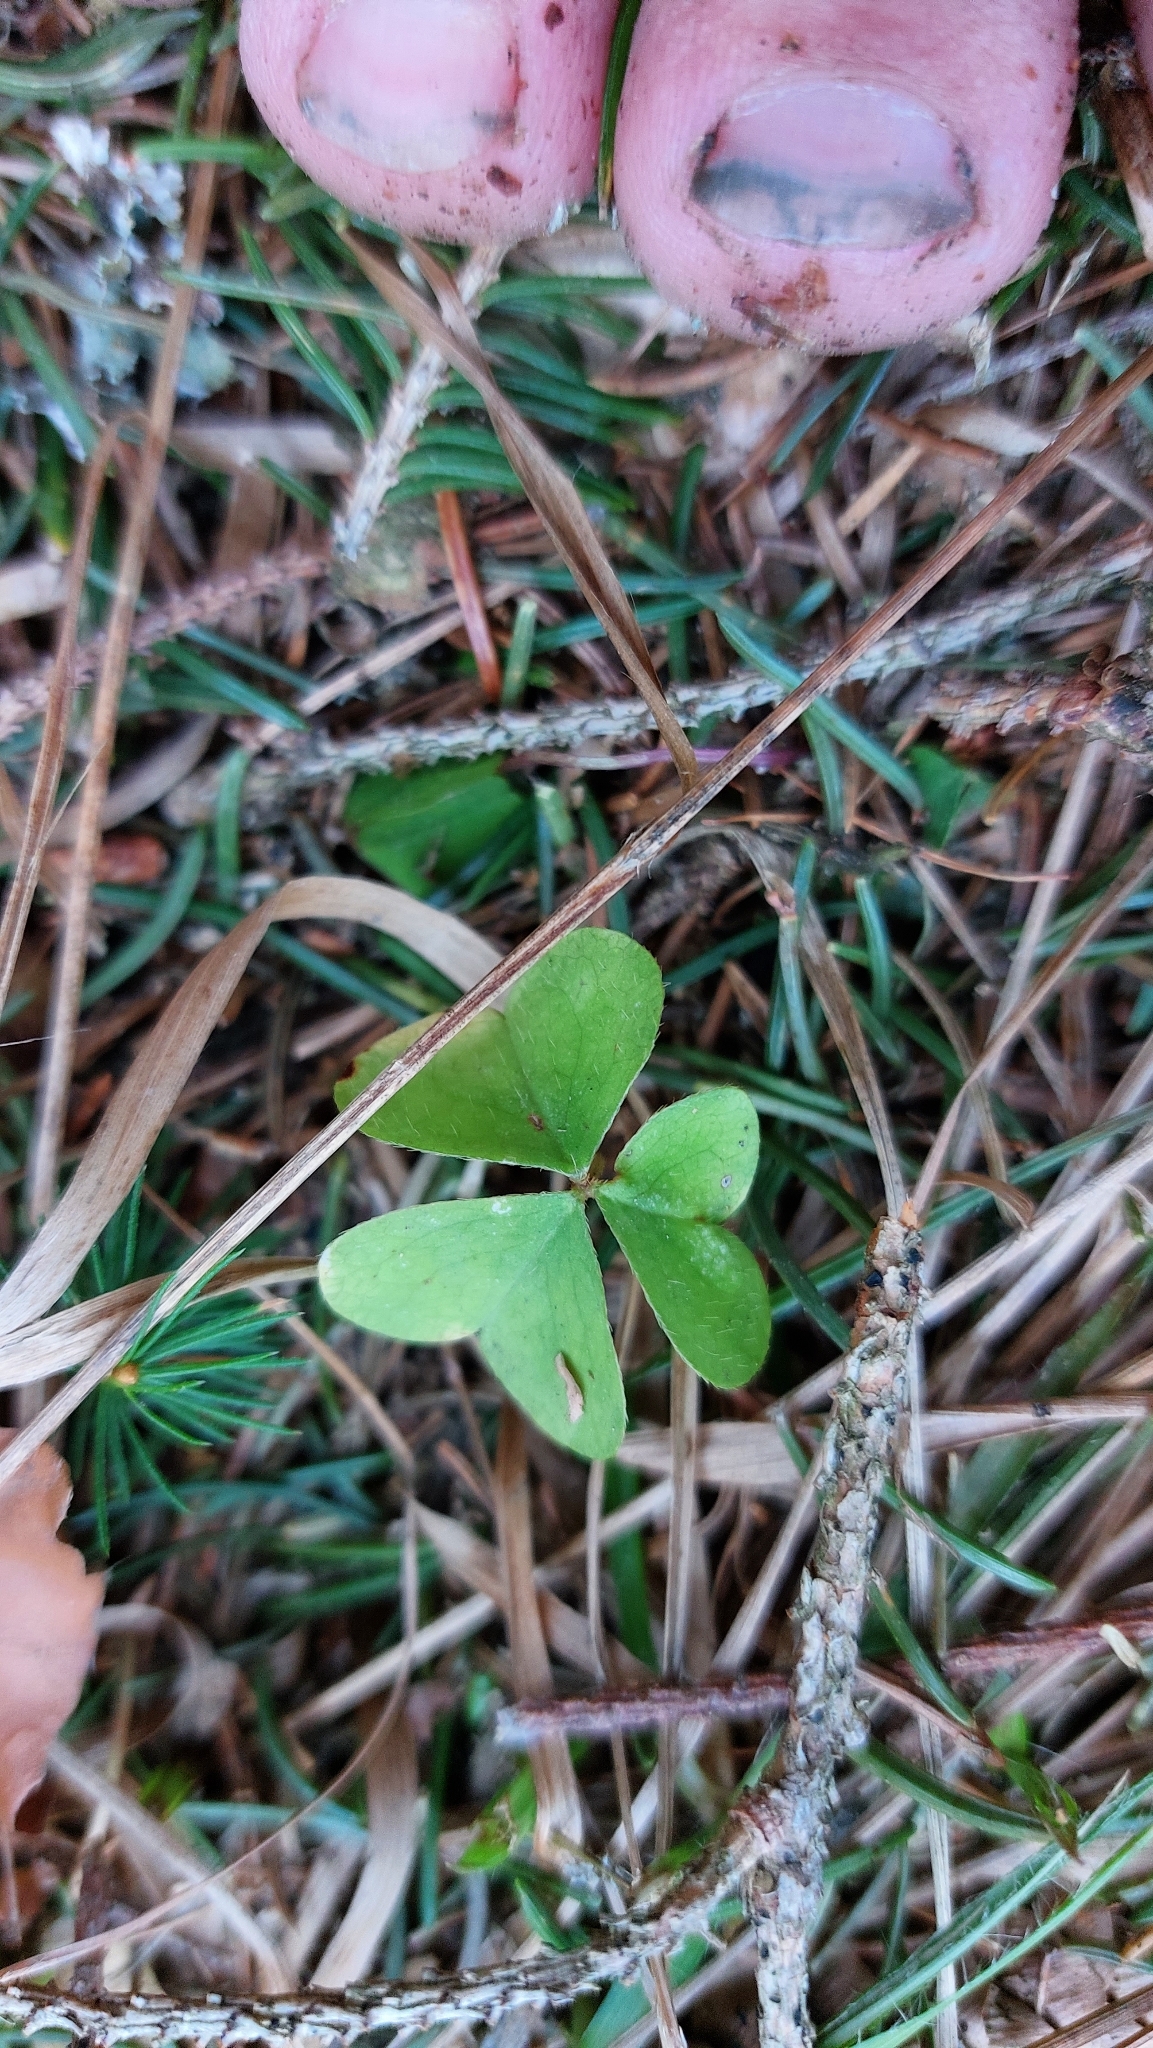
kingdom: Plantae
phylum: Tracheophyta
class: Magnoliopsida
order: Oxalidales
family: Oxalidaceae
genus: Oxalis
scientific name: Oxalis acetosella
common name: Wood-sorrel
